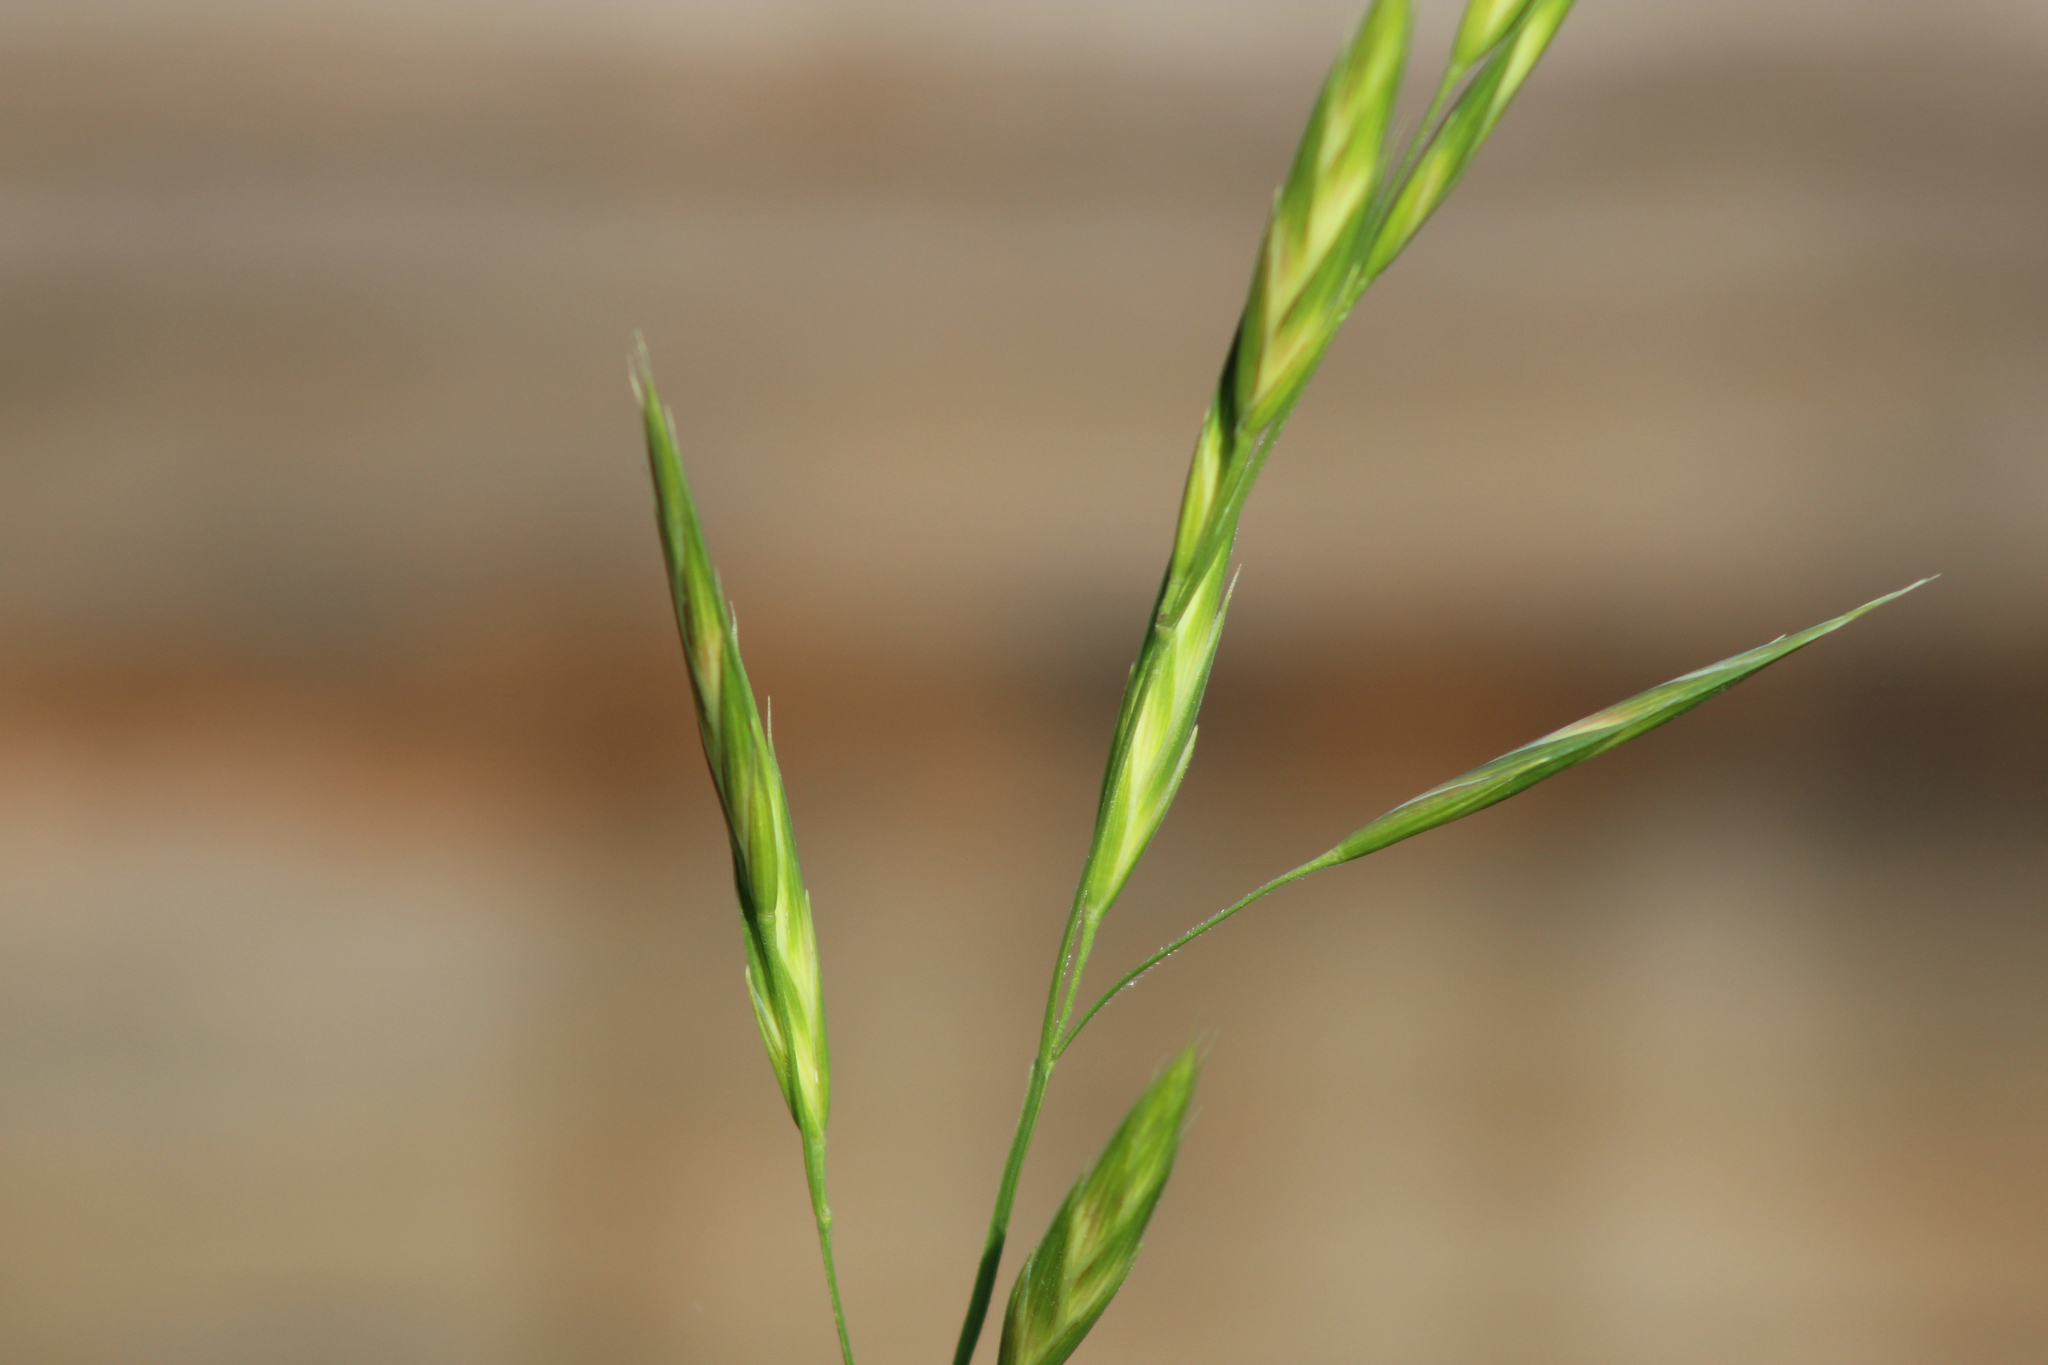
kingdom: Plantae
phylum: Tracheophyta
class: Liliopsida
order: Poales
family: Poaceae
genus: Bromus
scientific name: Bromus catharticus
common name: Rescuegrass
